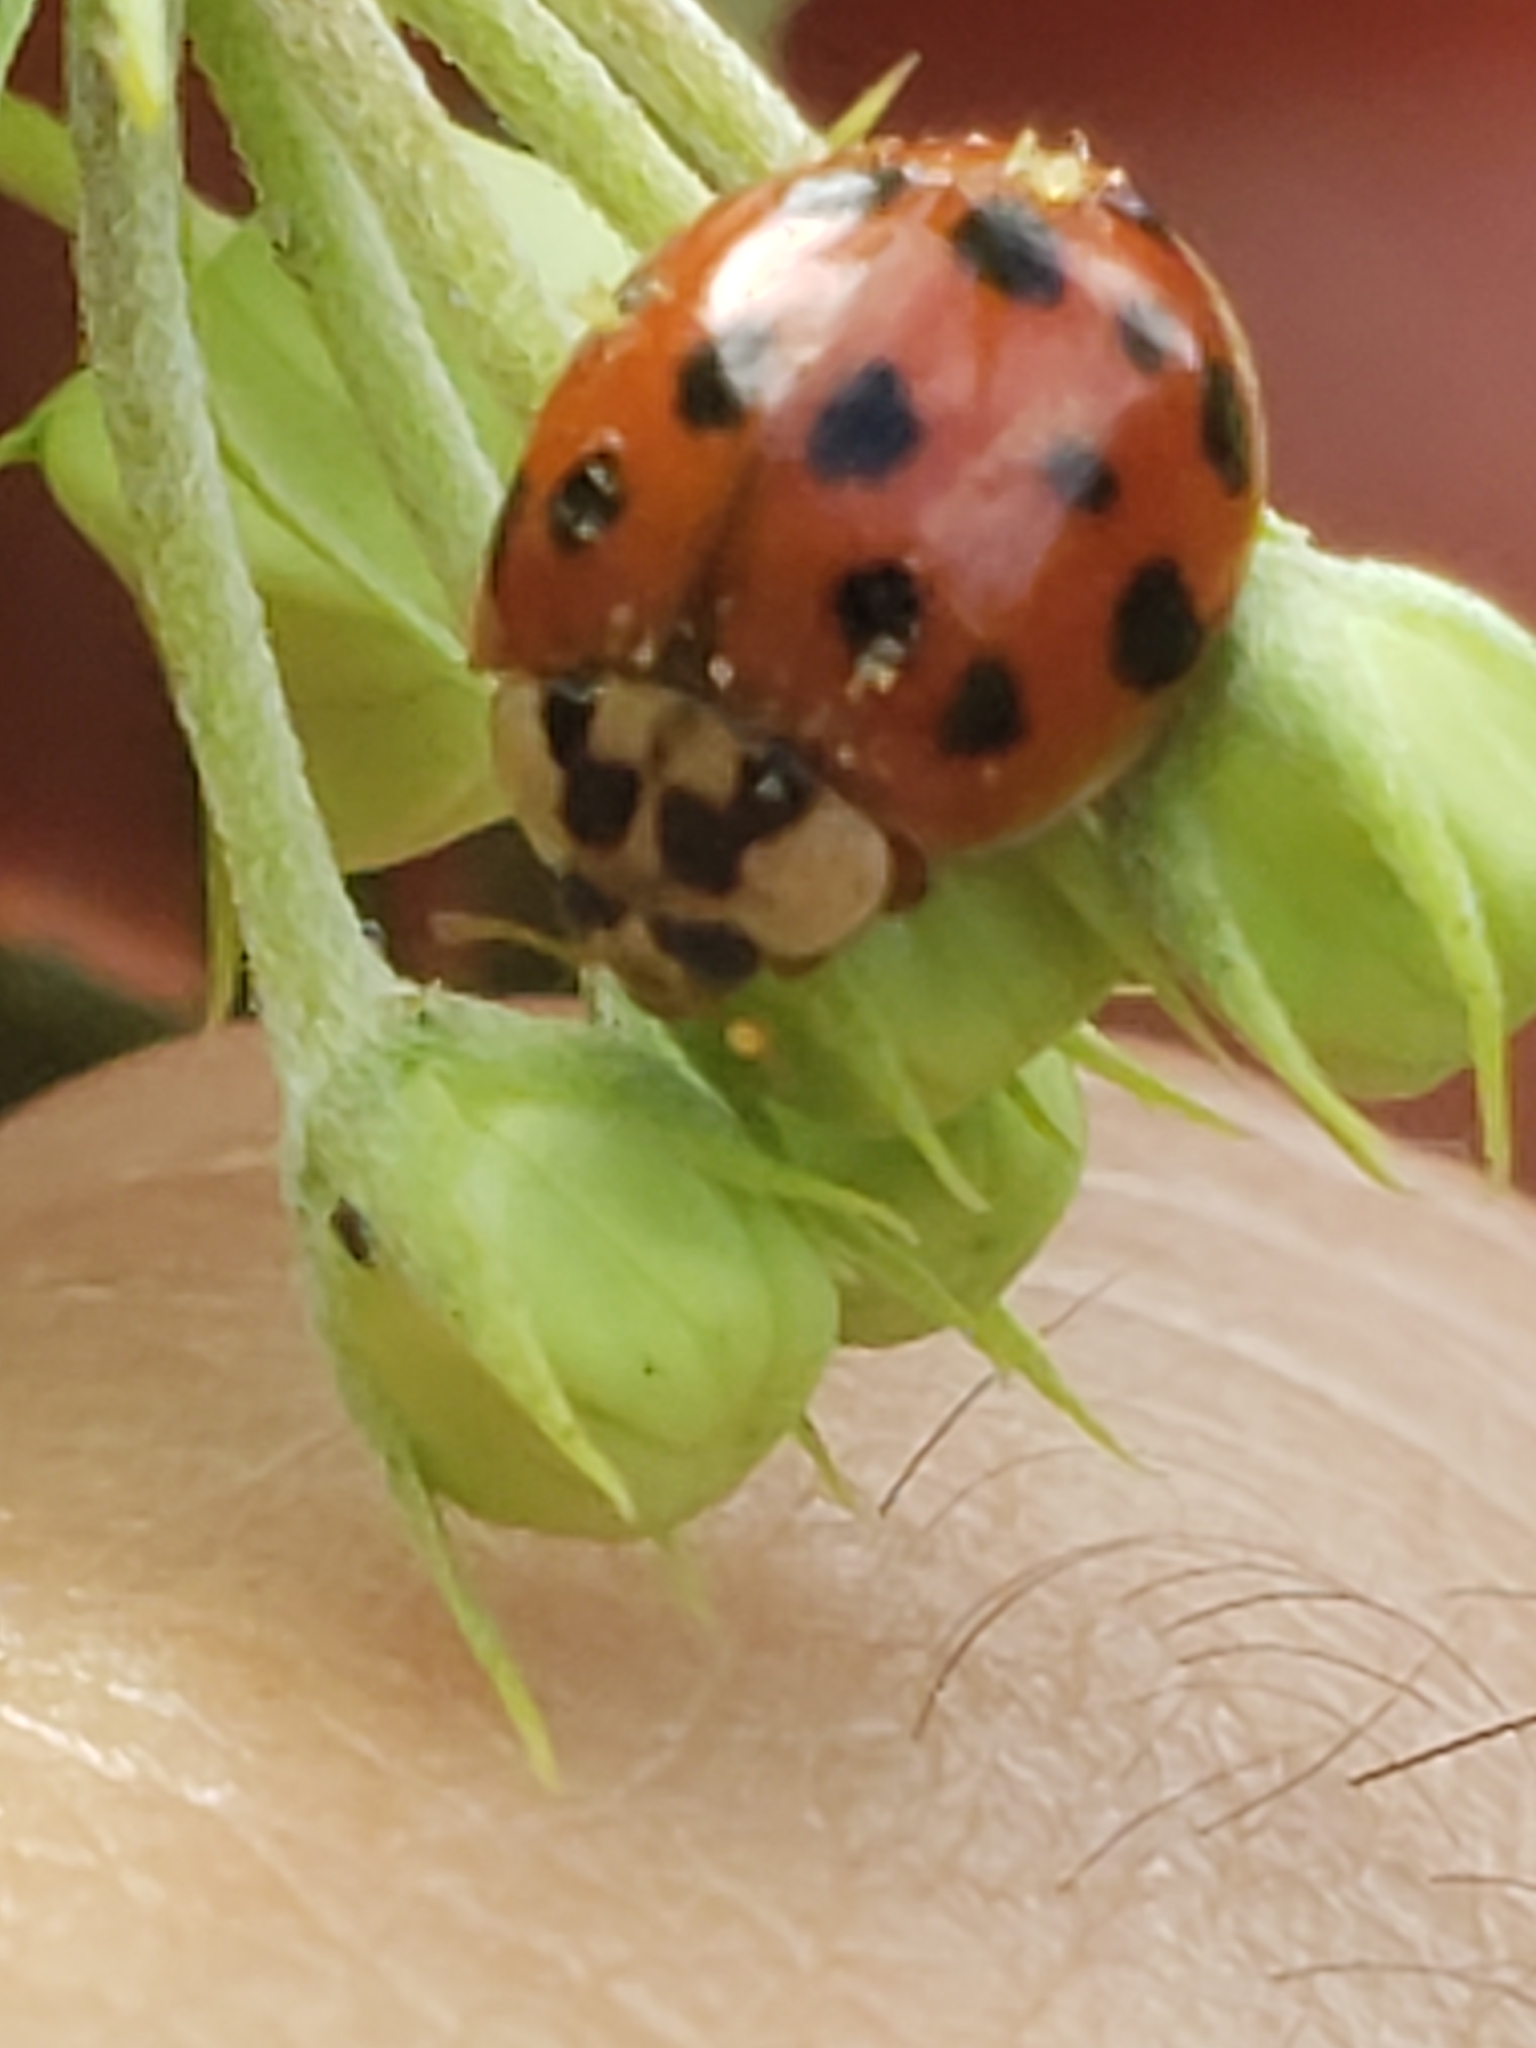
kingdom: Animalia
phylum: Arthropoda
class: Insecta
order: Coleoptera
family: Coccinellidae
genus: Harmonia
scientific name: Harmonia axyridis
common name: Harlequin ladybird
